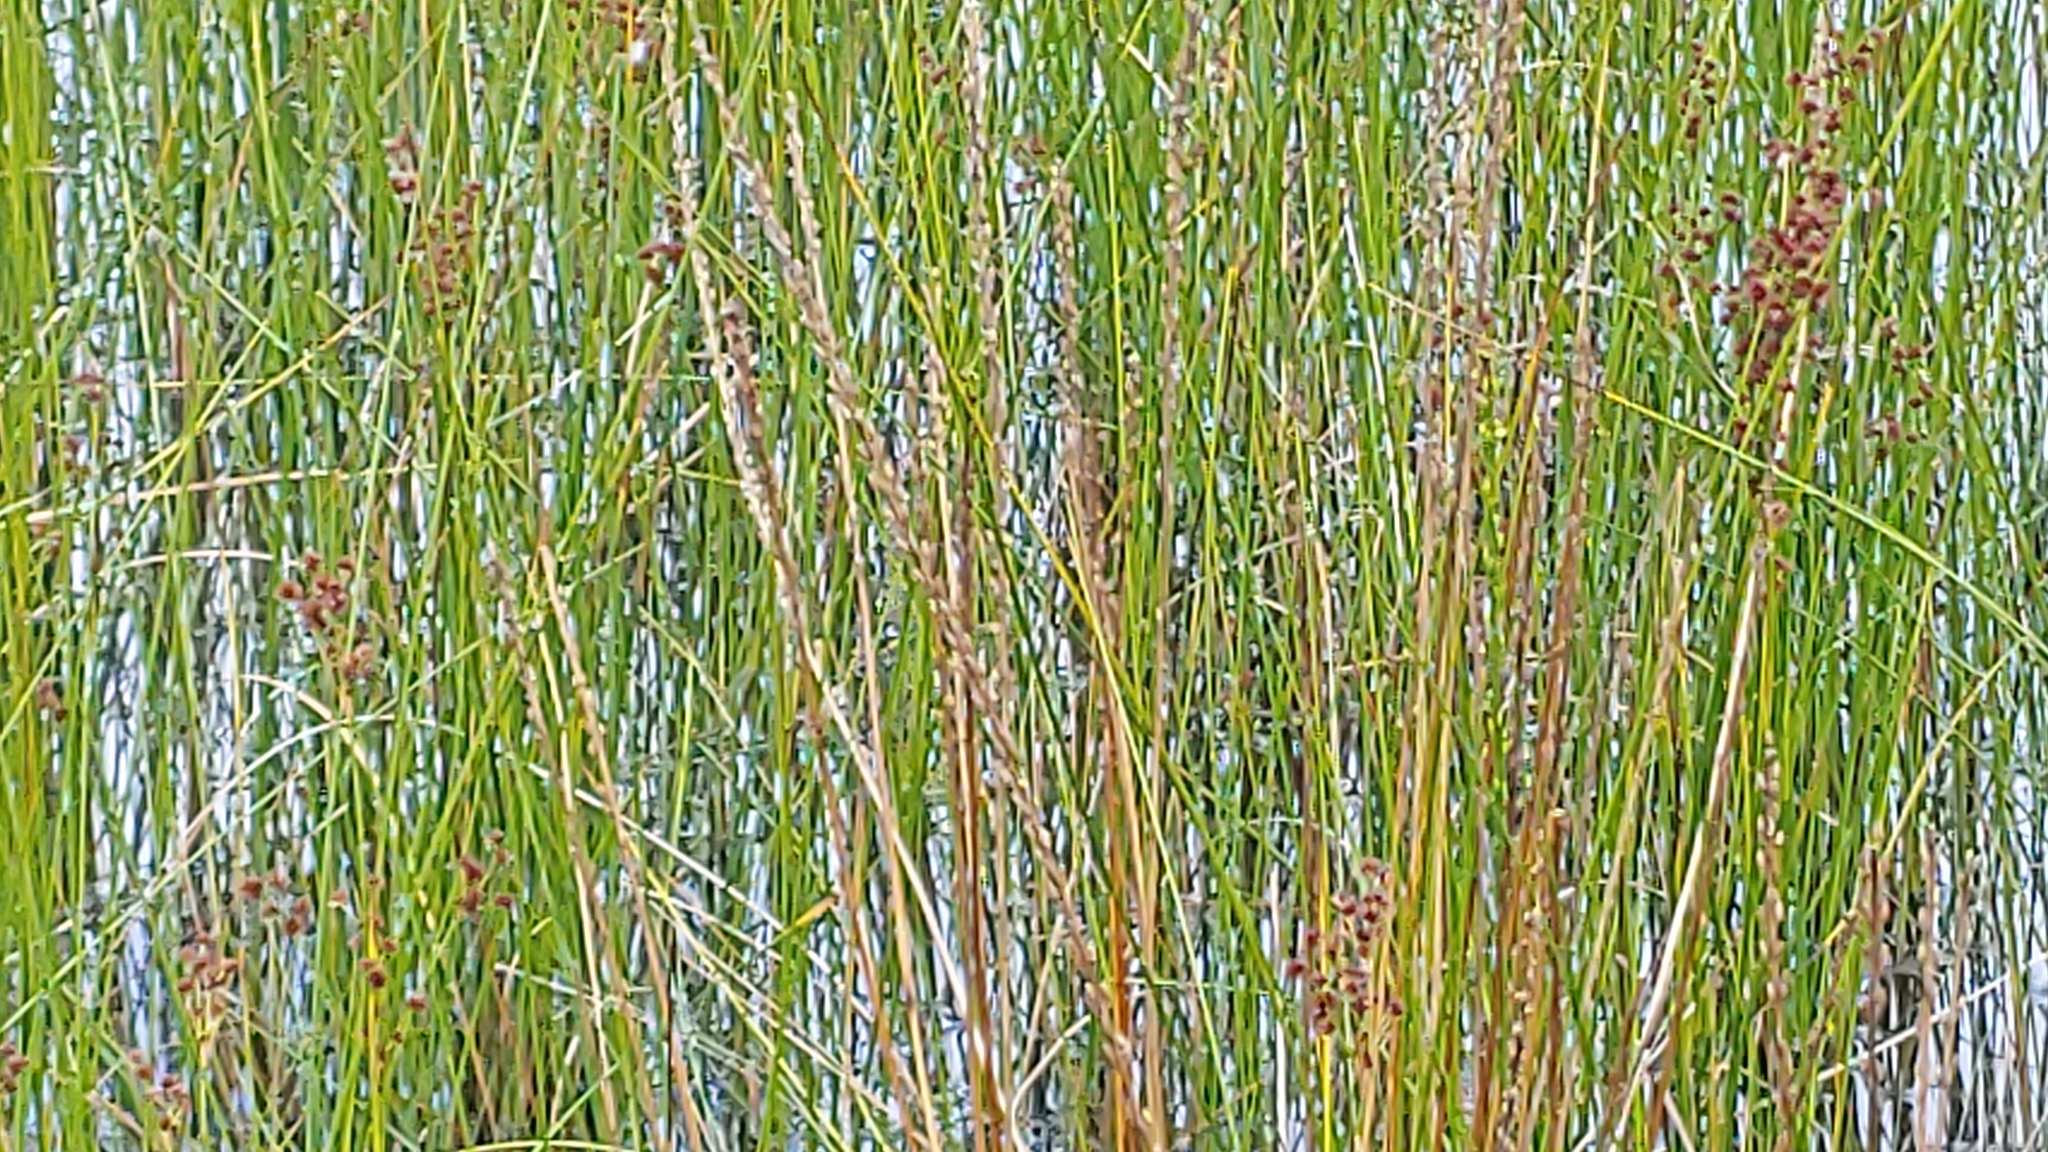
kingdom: Plantae
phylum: Tracheophyta
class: Liliopsida
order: Alismatales
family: Juncaginaceae
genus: Triglochin
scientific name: Triglochin maritima
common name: Sea arrowgrass
